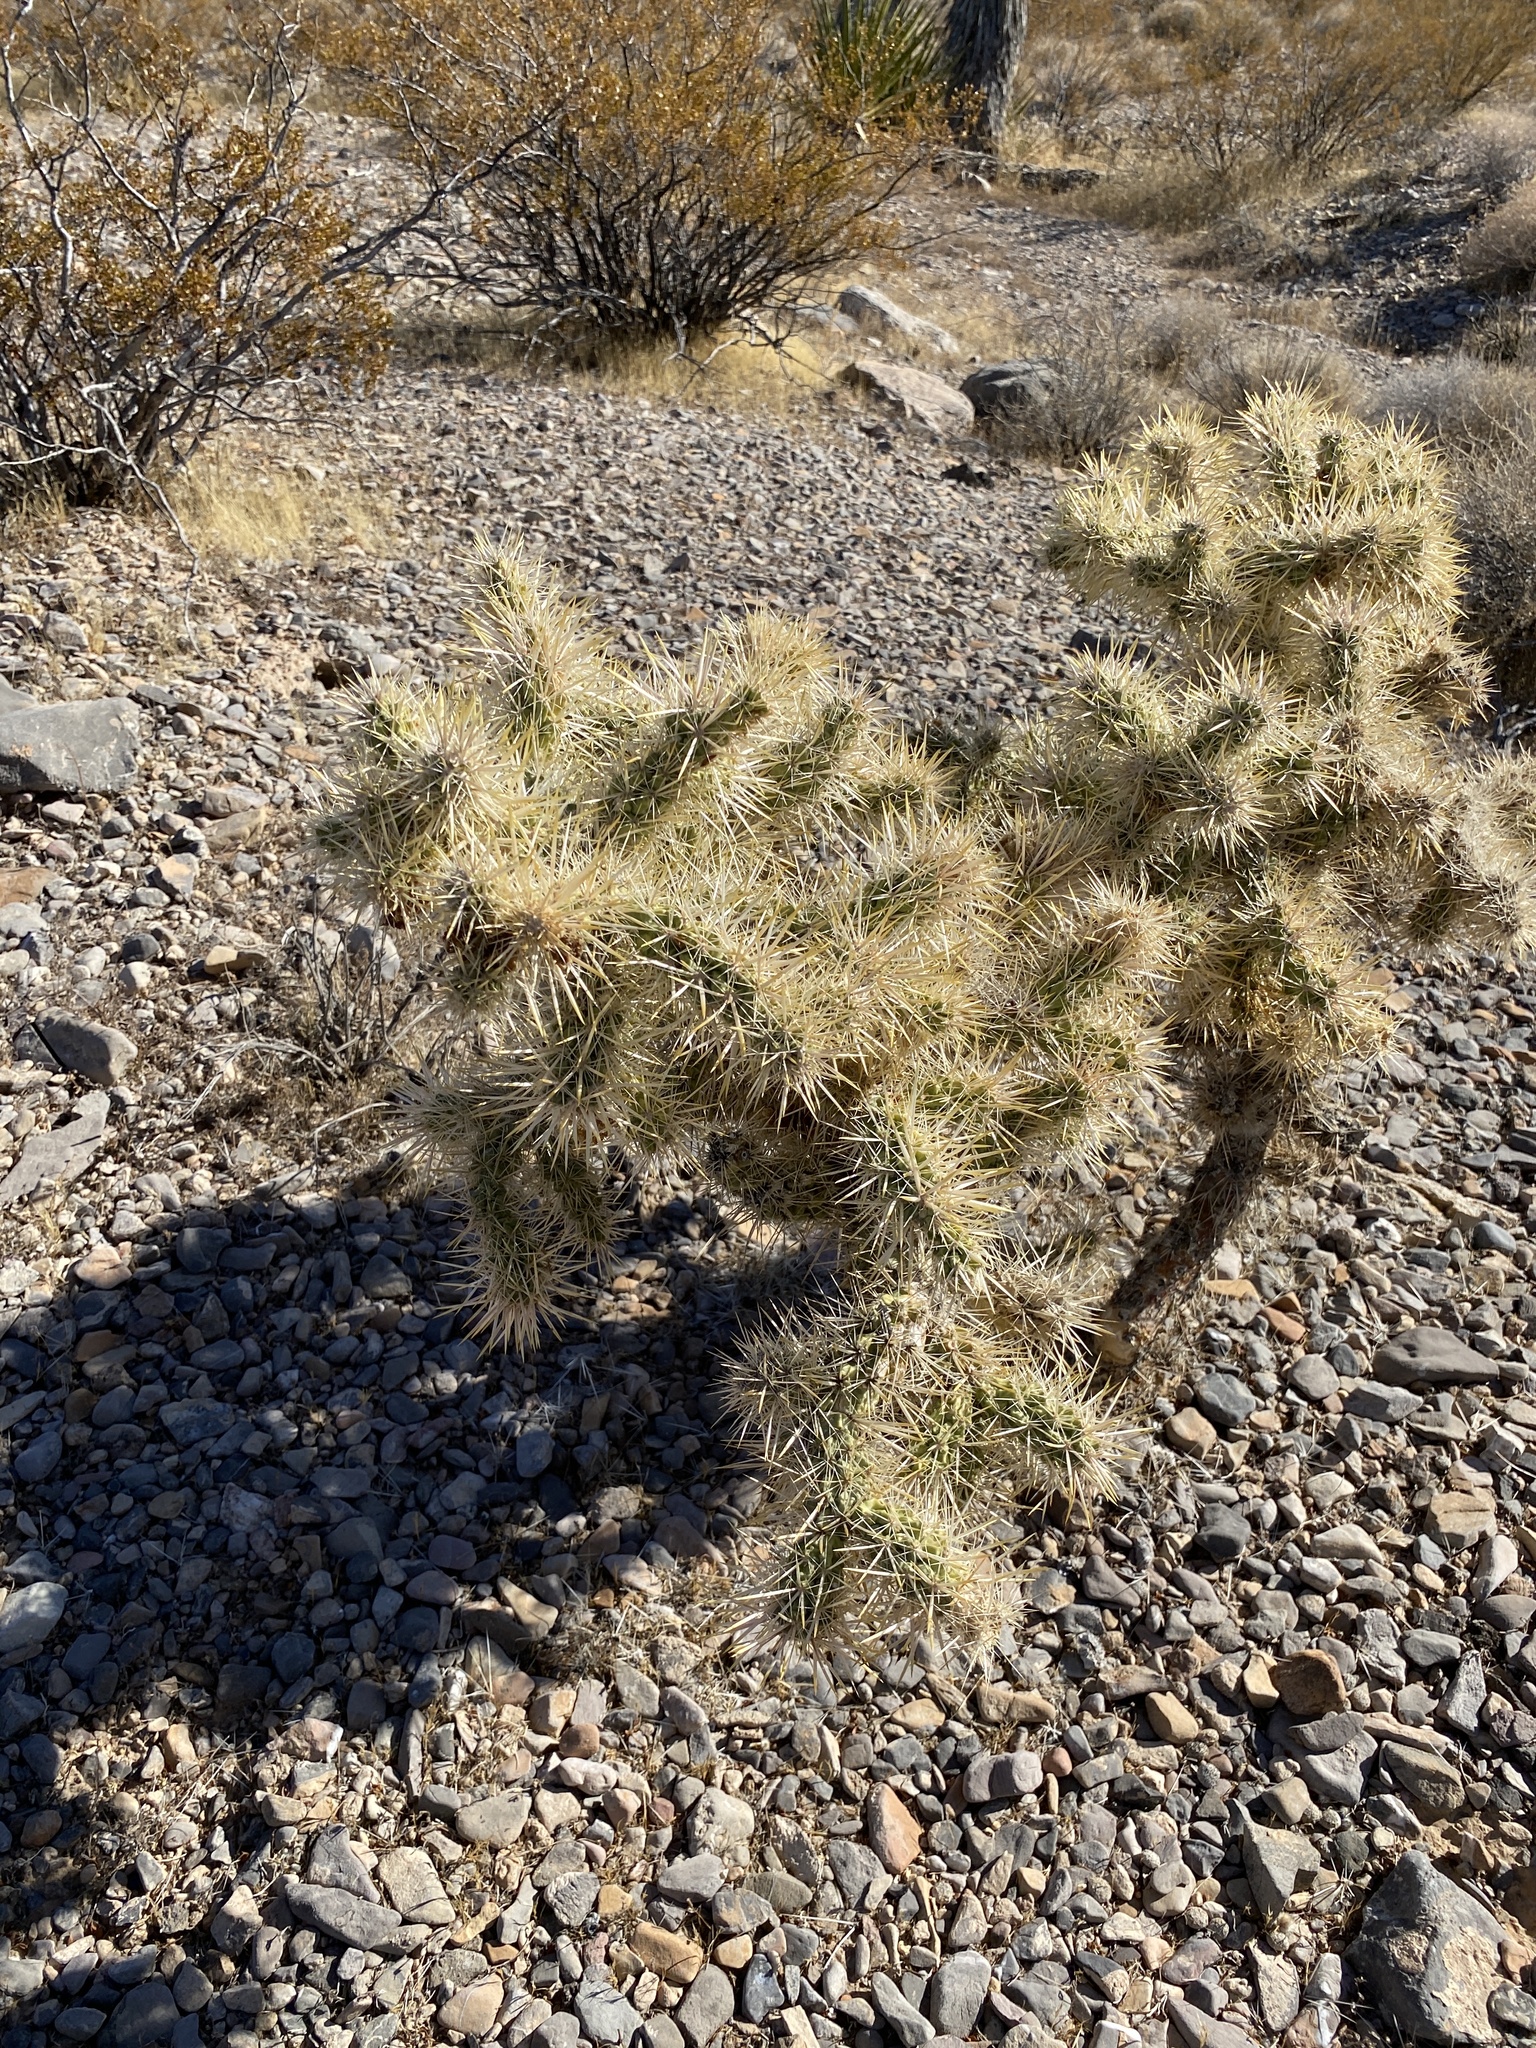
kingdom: Plantae
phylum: Tracheophyta
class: Magnoliopsida
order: Caryophyllales
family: Cactaceae
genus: Cylindropuntia
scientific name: Cylindropuntia echinocarpa
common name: Ground cholla
